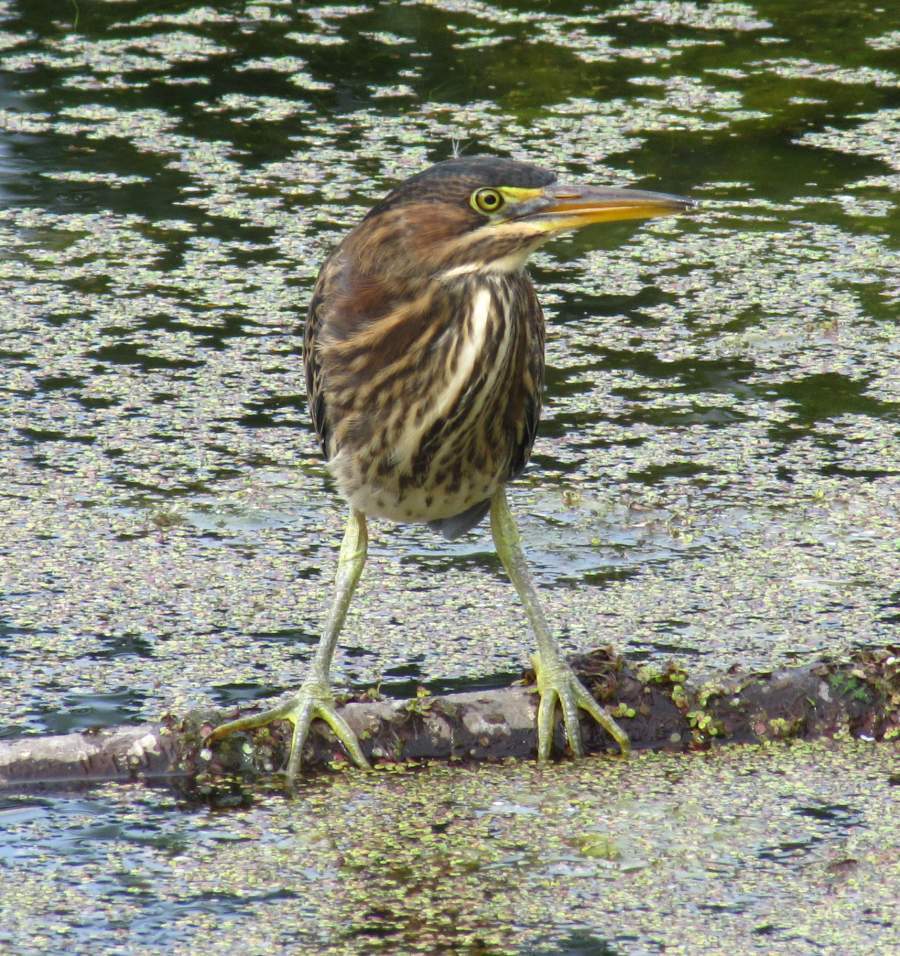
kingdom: Animalia
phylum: Chordata
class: Aves
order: Pelecaniformes
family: Ardeidae
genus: Butorides
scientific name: Butorides virescens
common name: Green heron
